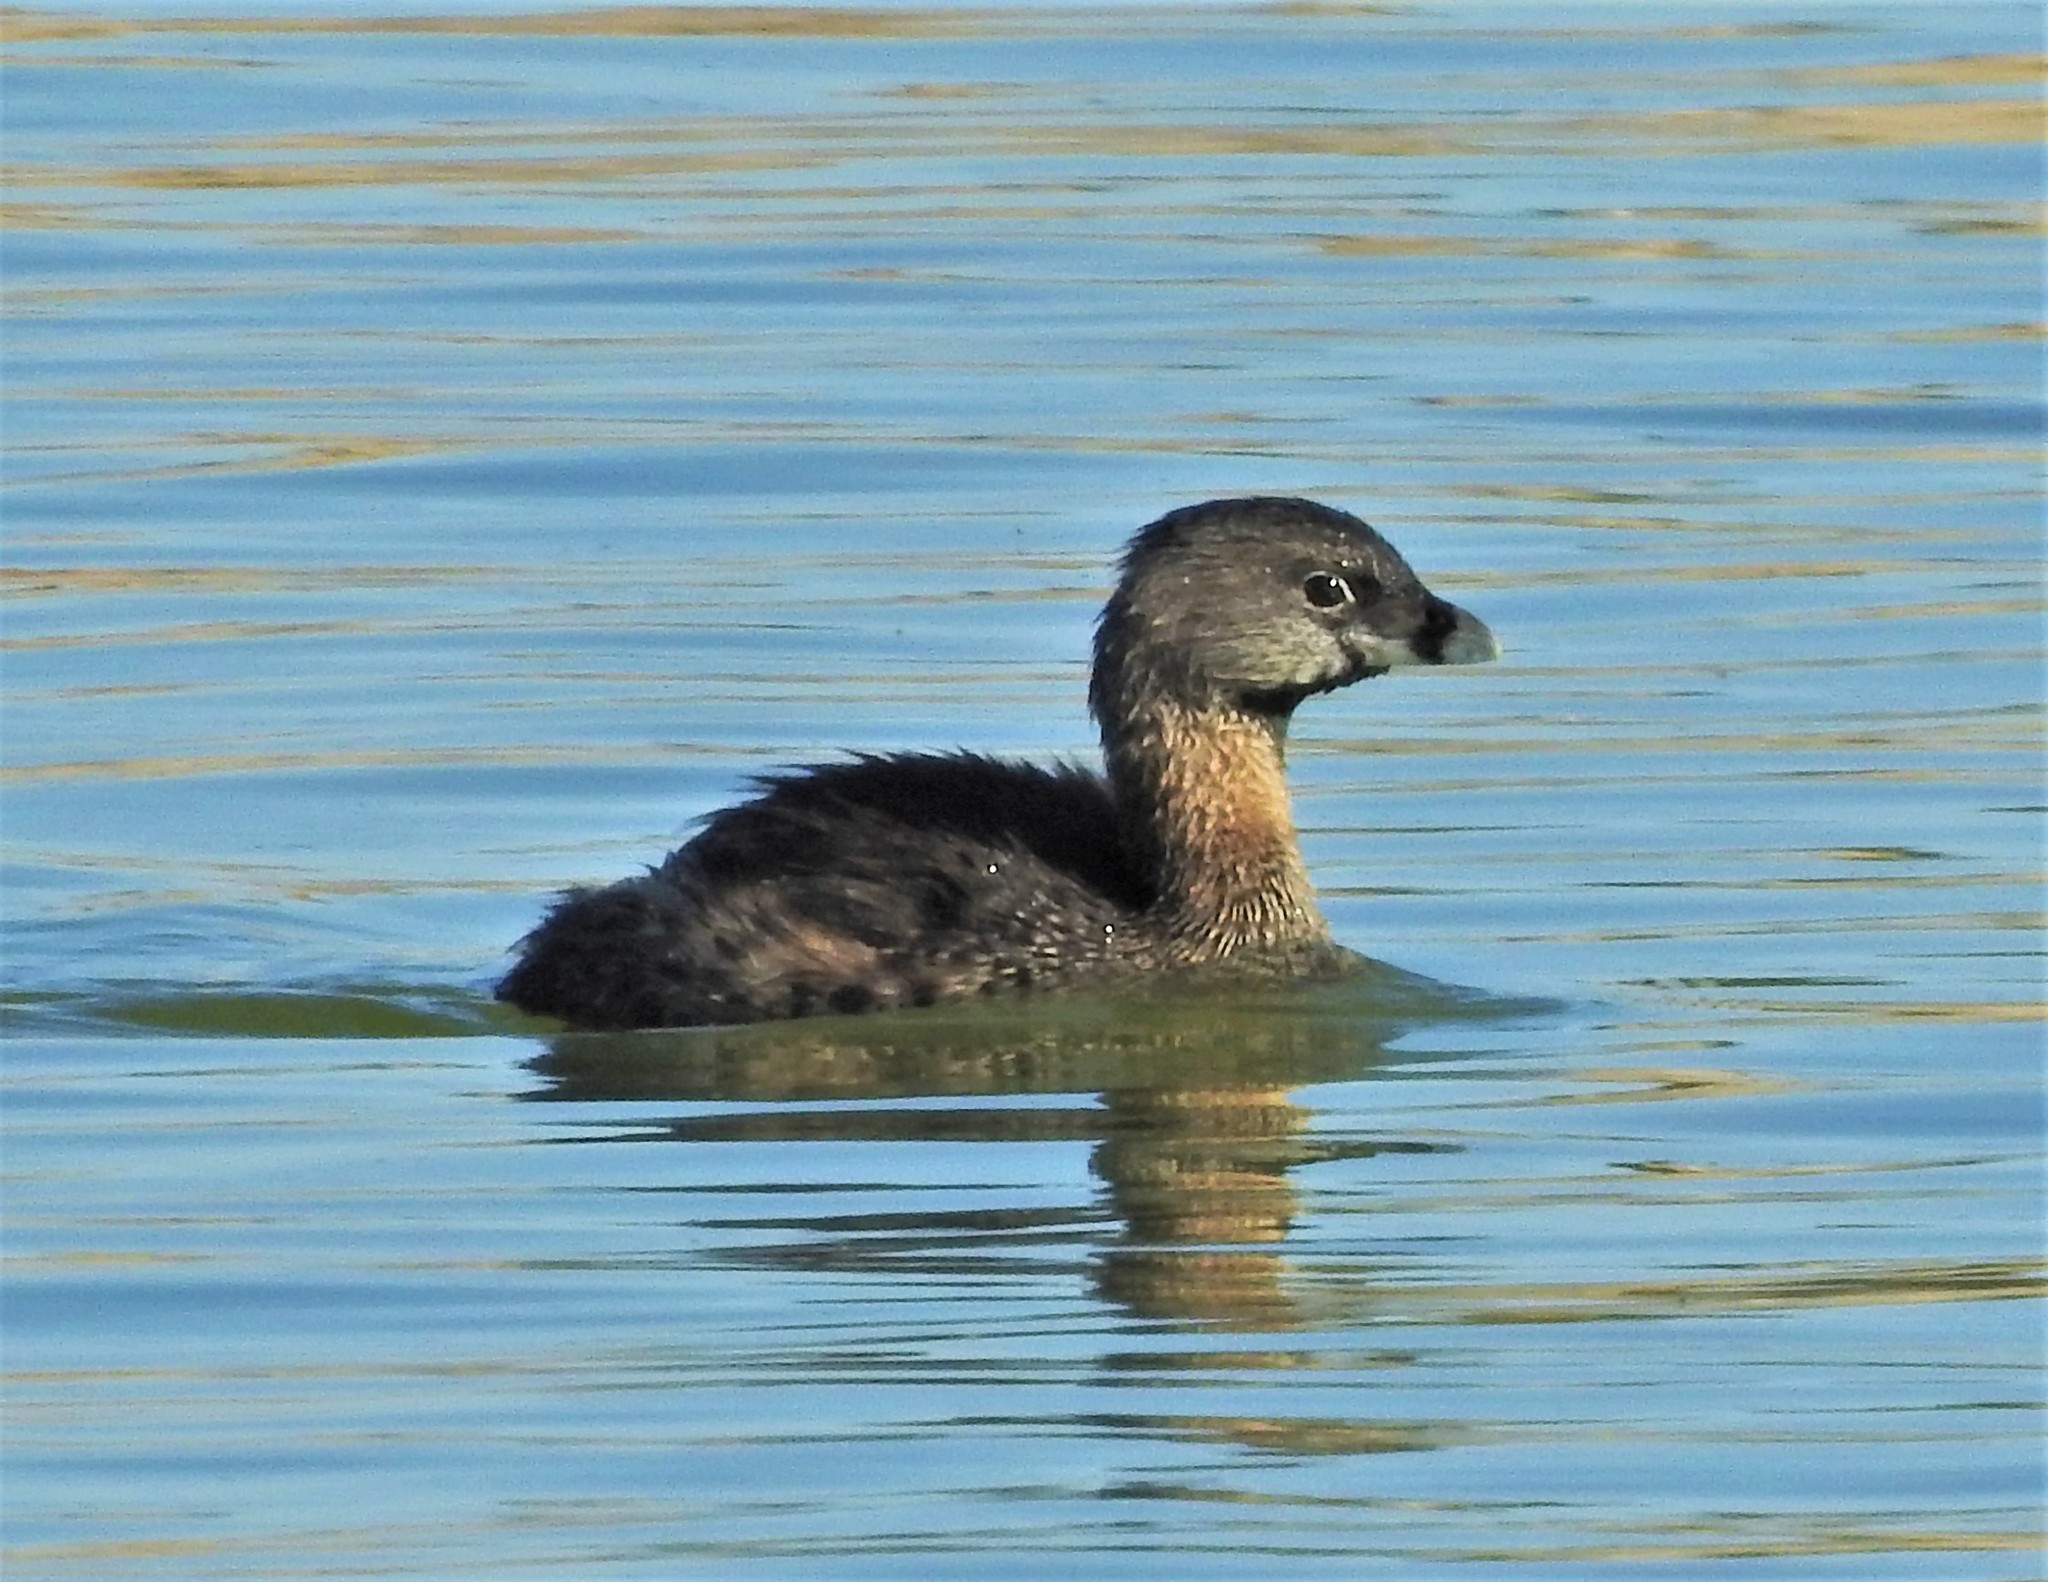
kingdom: Animalia
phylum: Chordata
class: Aves
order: Podicipediformes
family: Podicipedidae
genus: Podilymbus
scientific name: Podilymbus podiceps
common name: Pied-billed grebe
